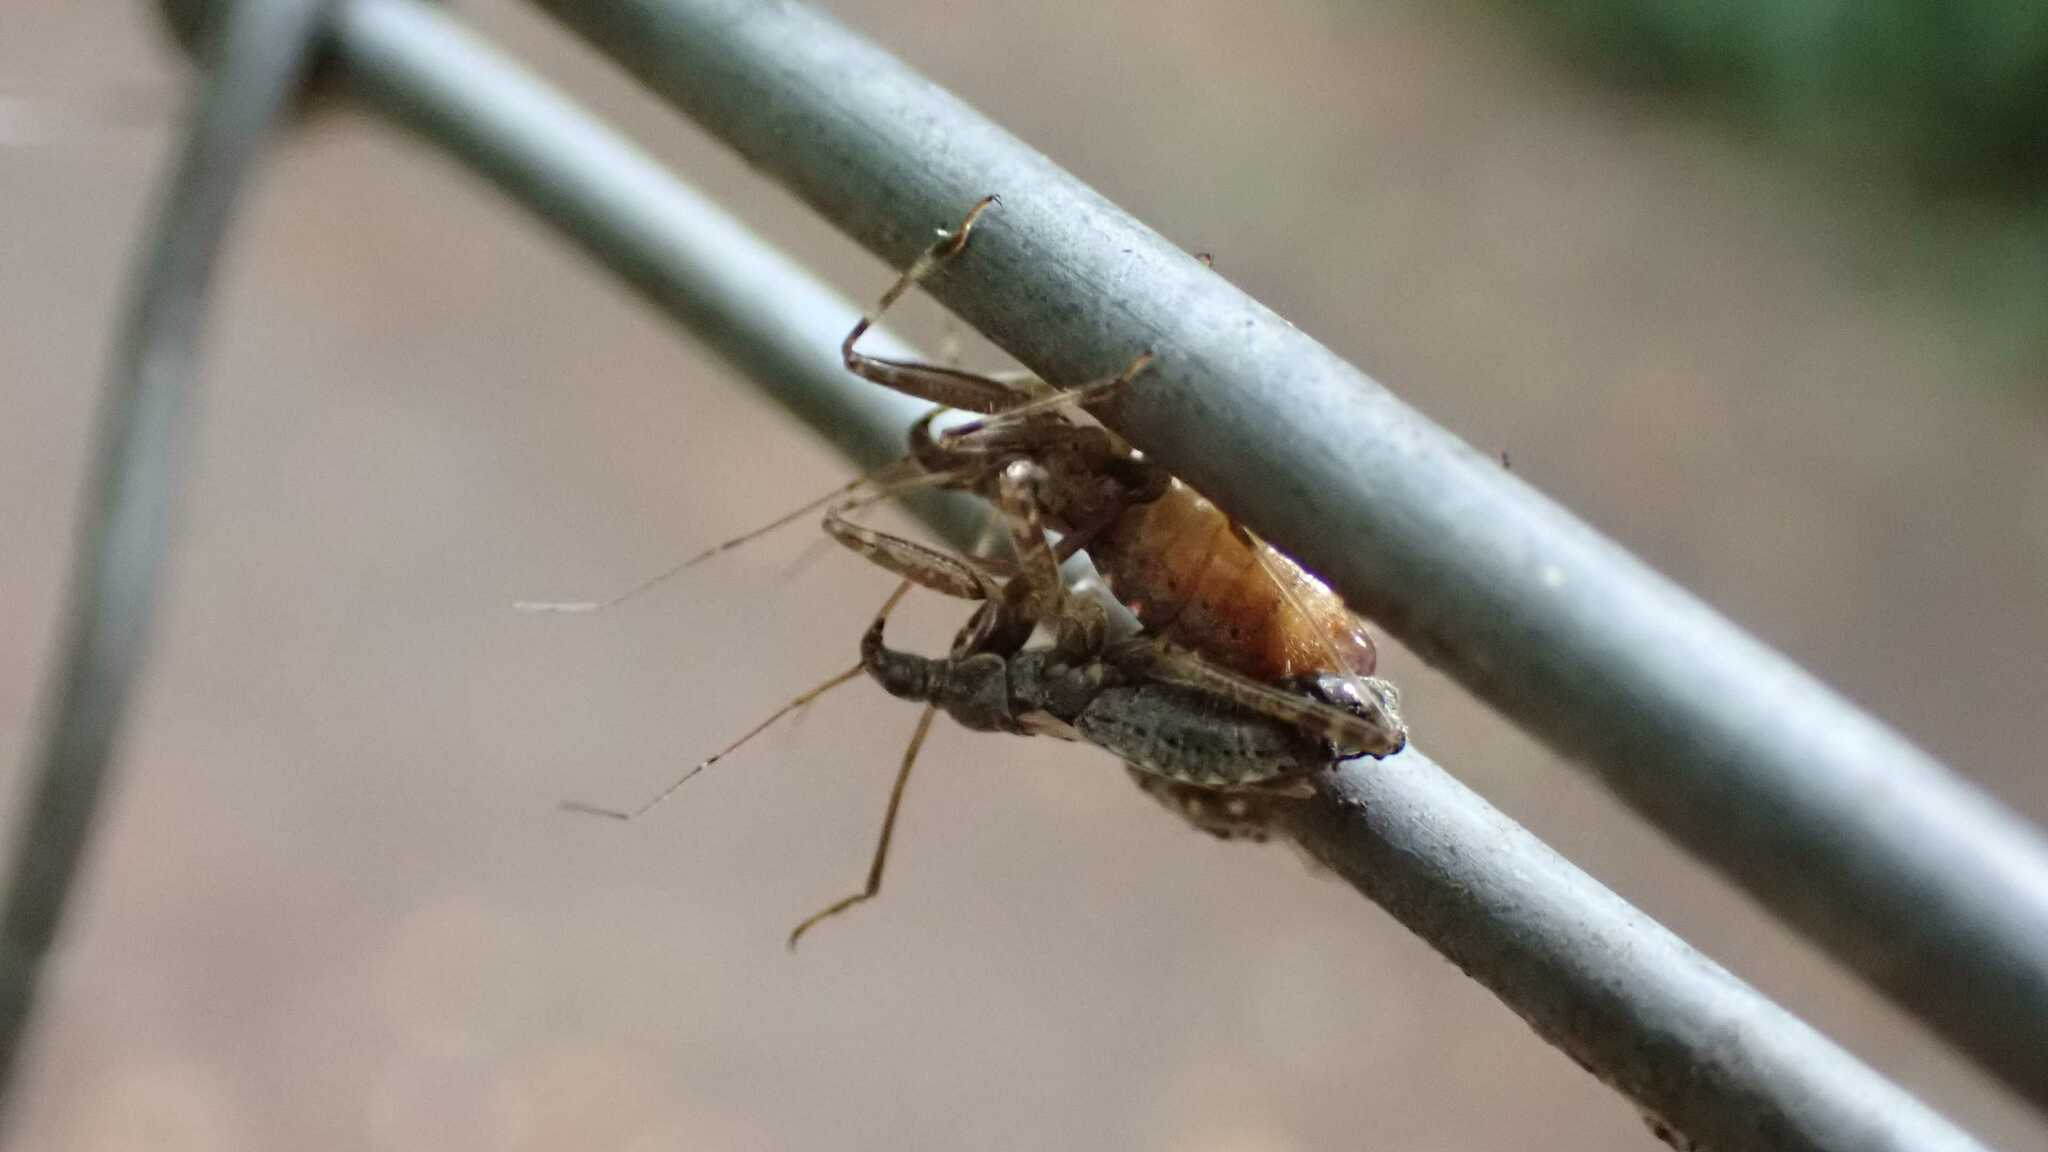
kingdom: Animalia
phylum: Arthropoda
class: Insecta
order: Hemiptera
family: Nabidae
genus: Himacerus
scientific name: Himacerus apterus
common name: Tree damsel bug
